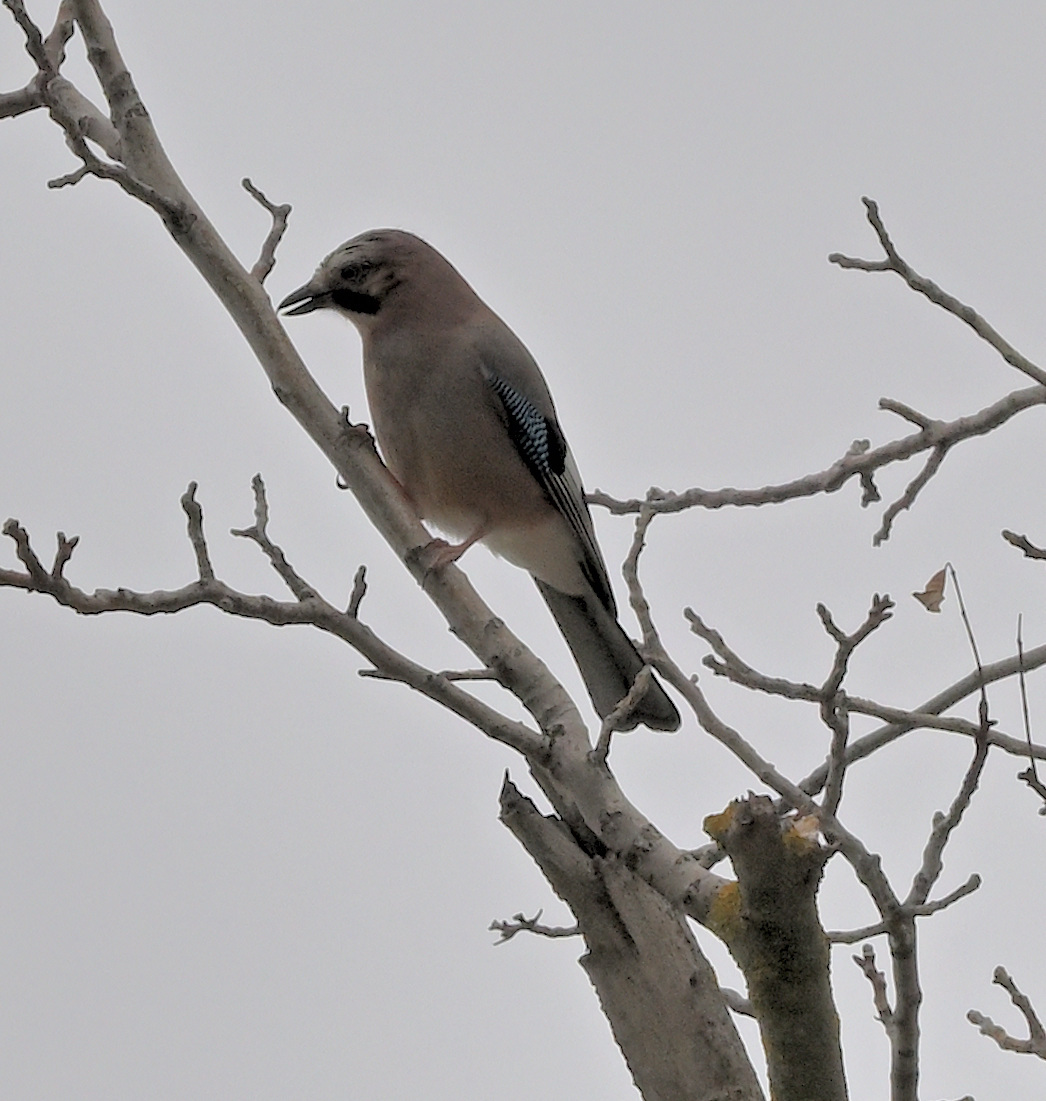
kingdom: Animalia
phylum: Chordata
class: Aves
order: Passeriformes
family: Corvidae
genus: Garrulus
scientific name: Garrulus glandarius
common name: Eurasian jay
